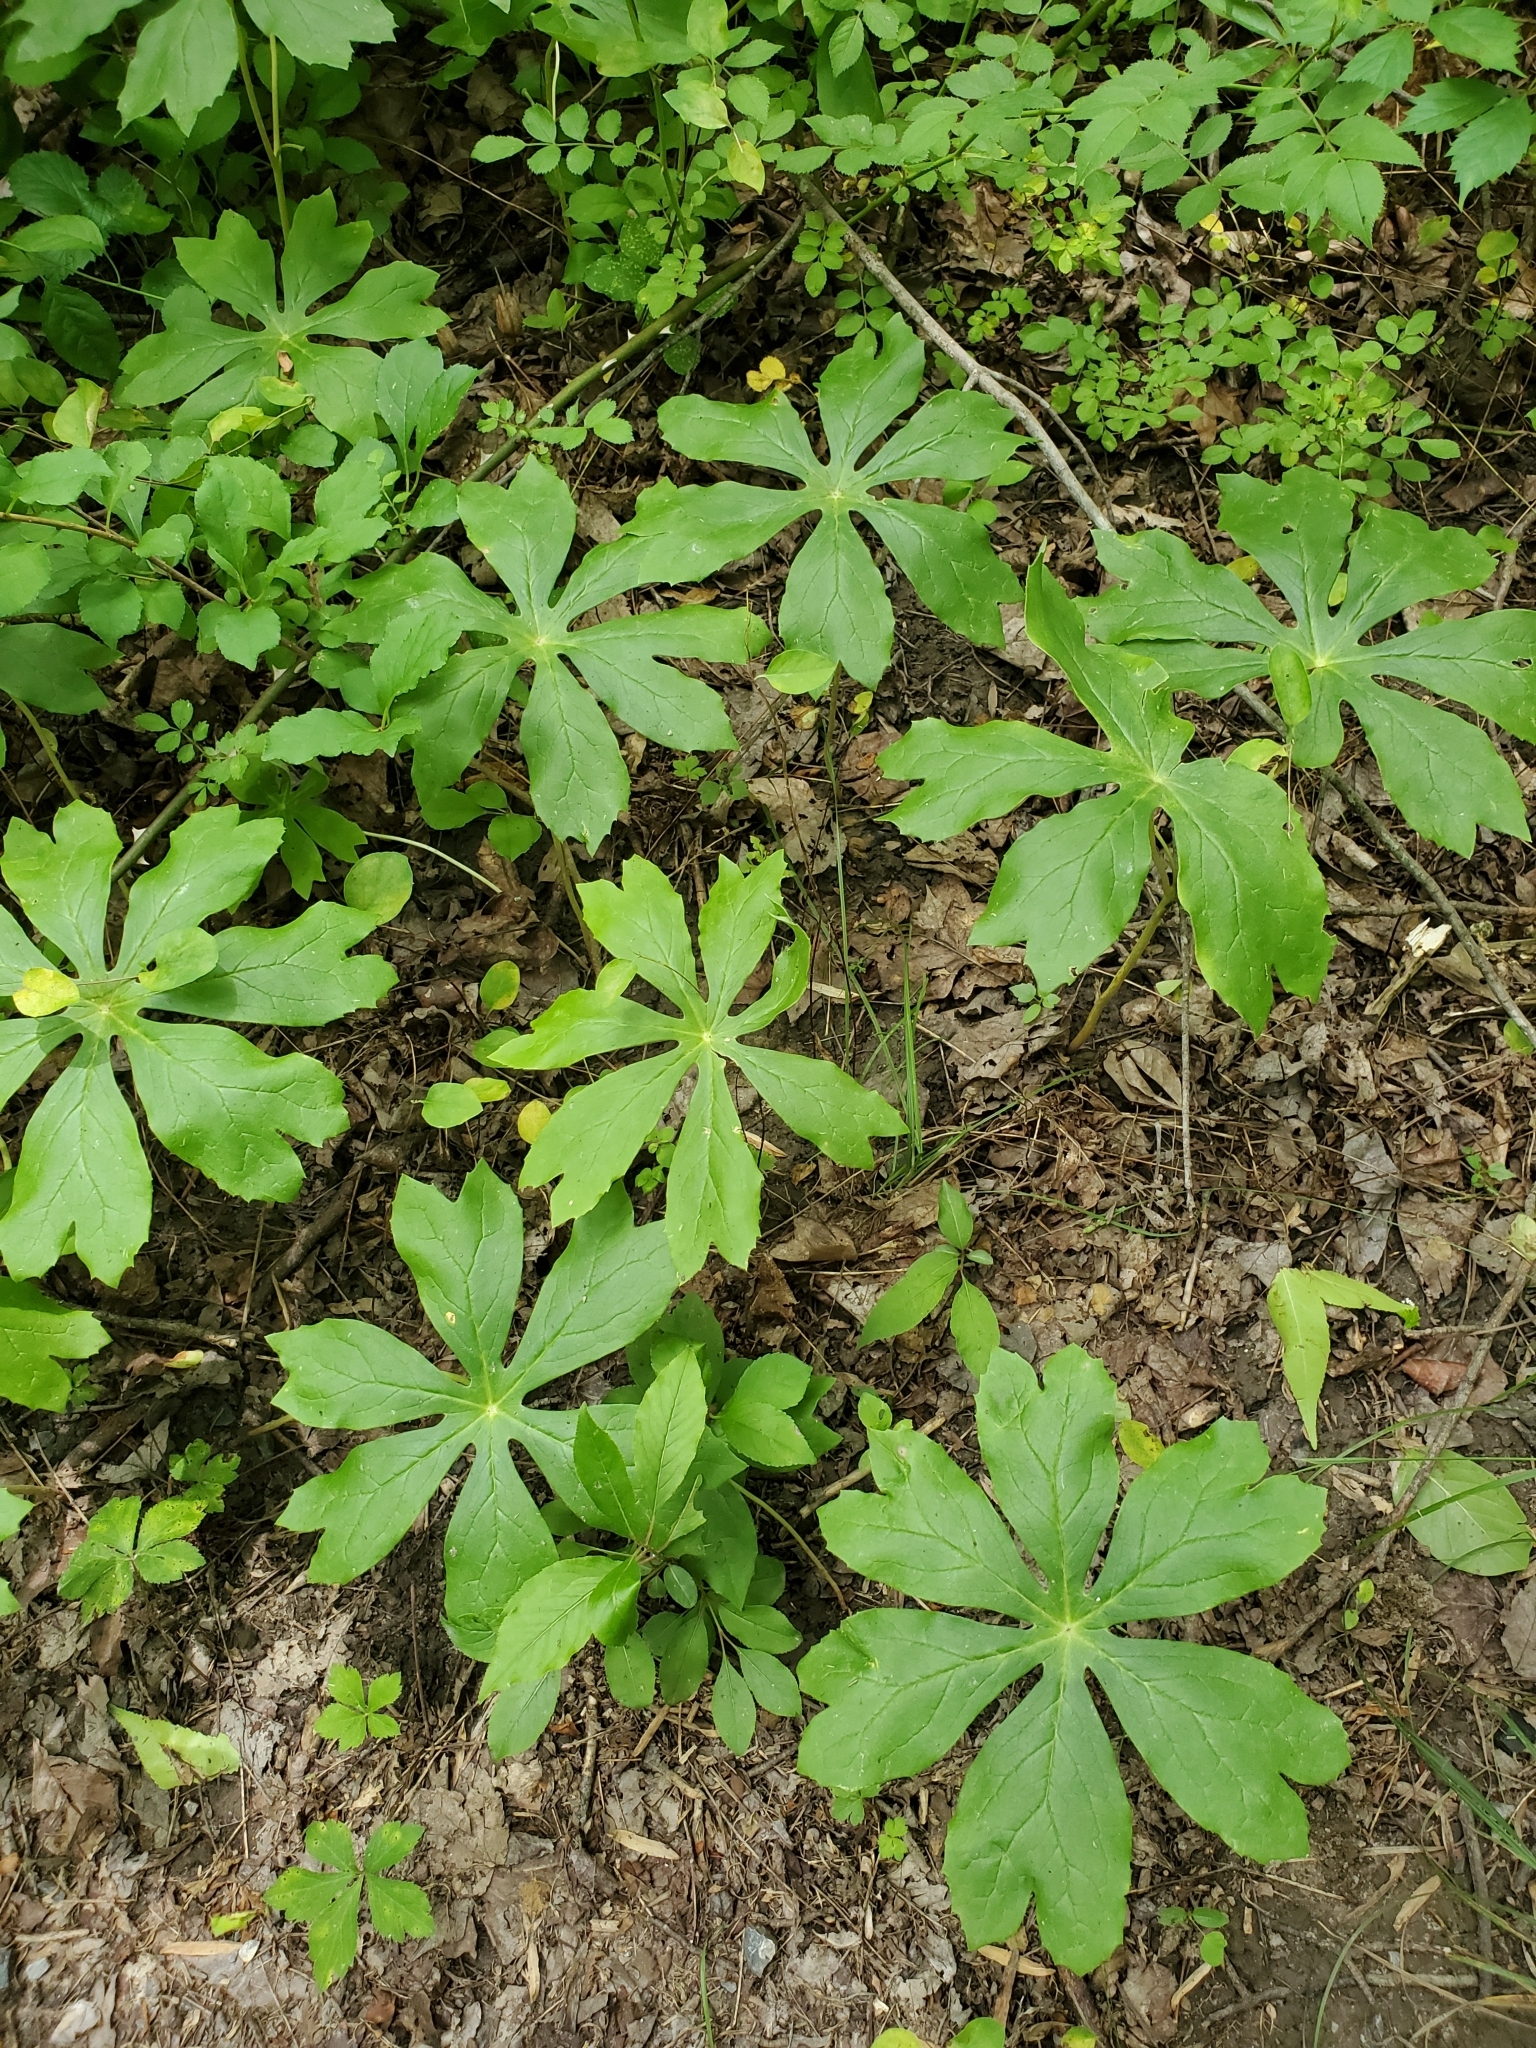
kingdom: Plantae
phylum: Tracheophyta
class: Magnoliopsida
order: Ranunculales
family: Berberidaceae
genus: Podophyllum
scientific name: Podophyllum peltatum
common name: Wild mandrake
